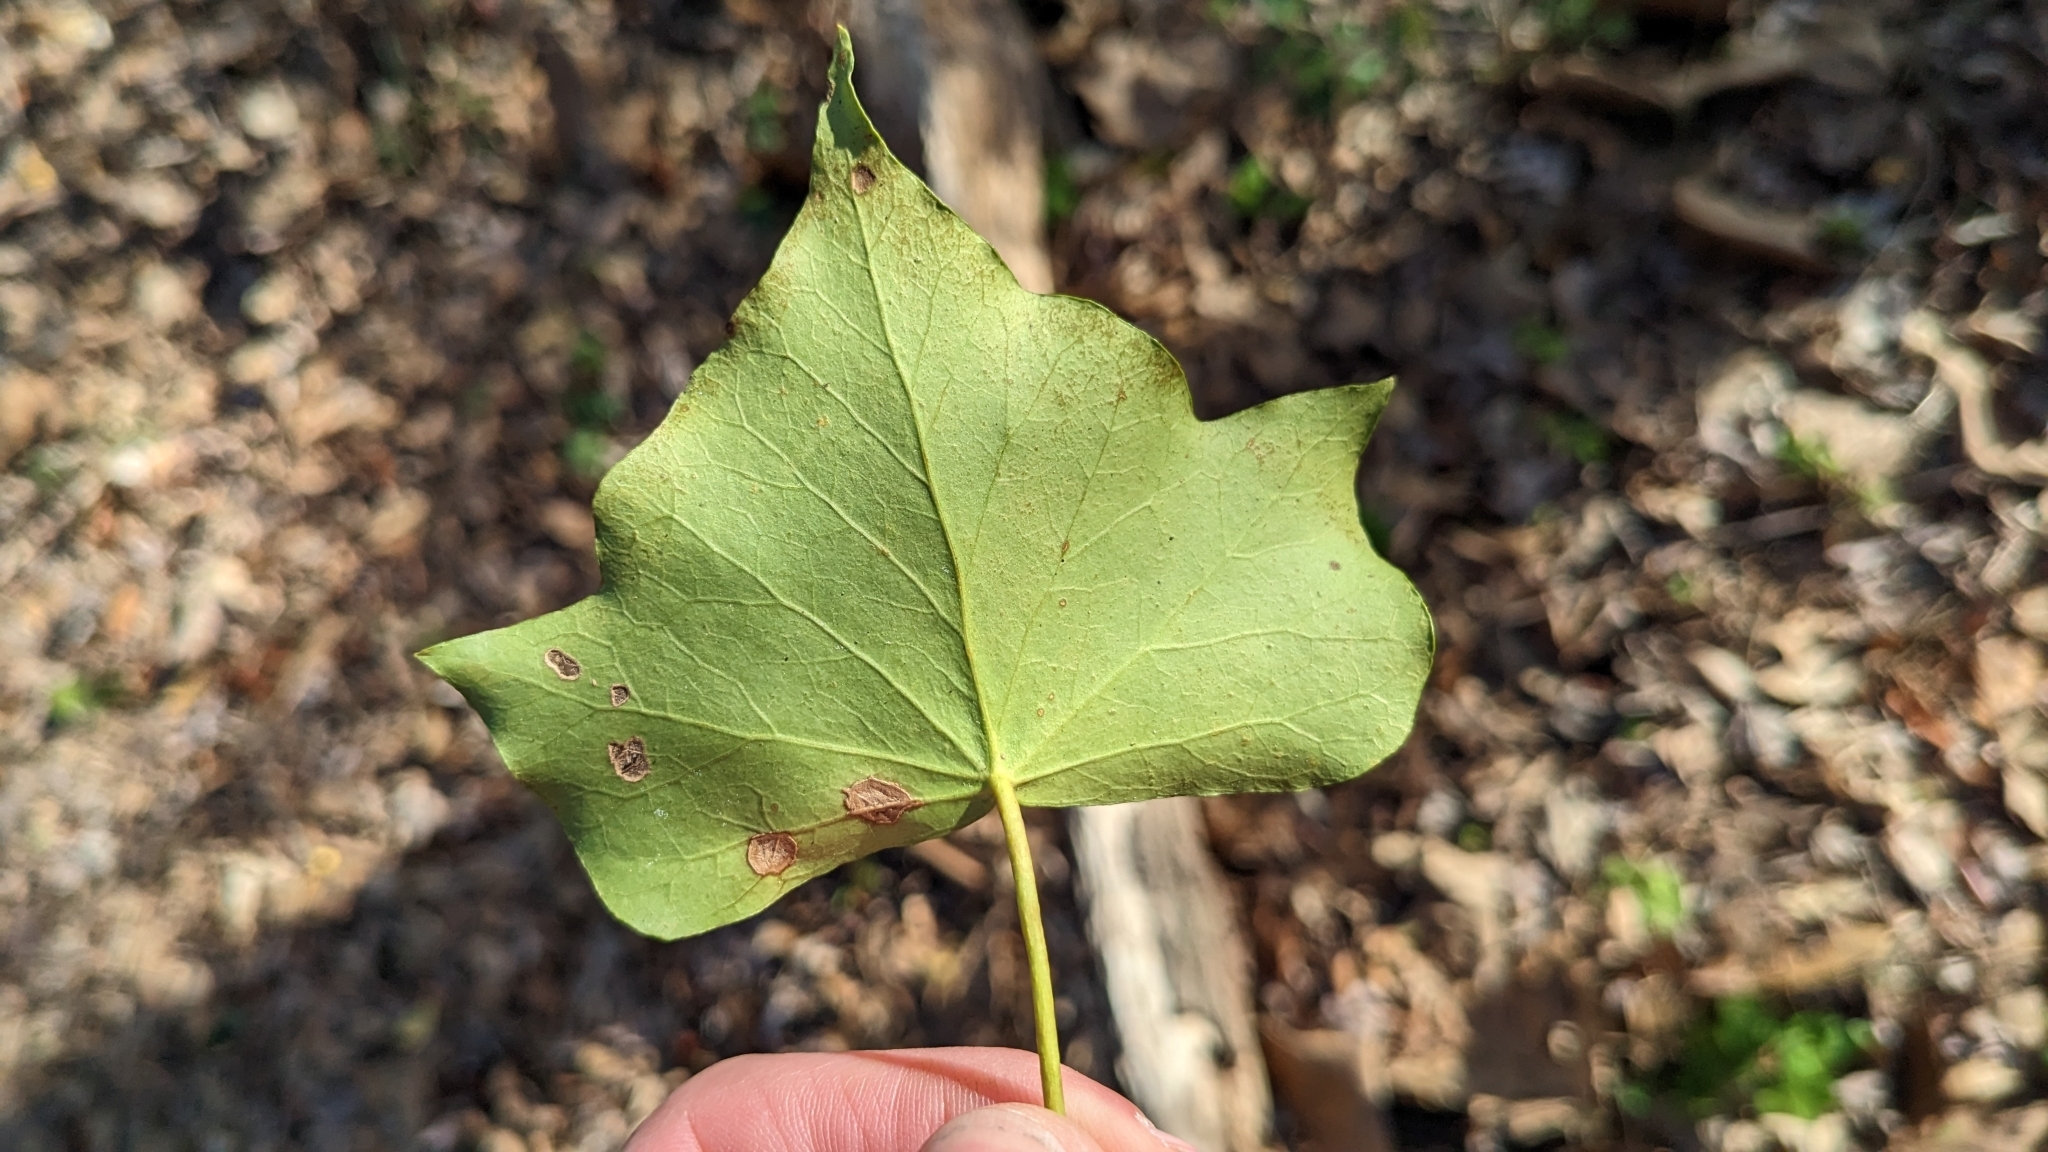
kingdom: Plantae
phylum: Tracheophyta
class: Magnoliopsida
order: Apiales
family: Araliaceae
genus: Hedera
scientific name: Hedera helix
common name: Ivy
